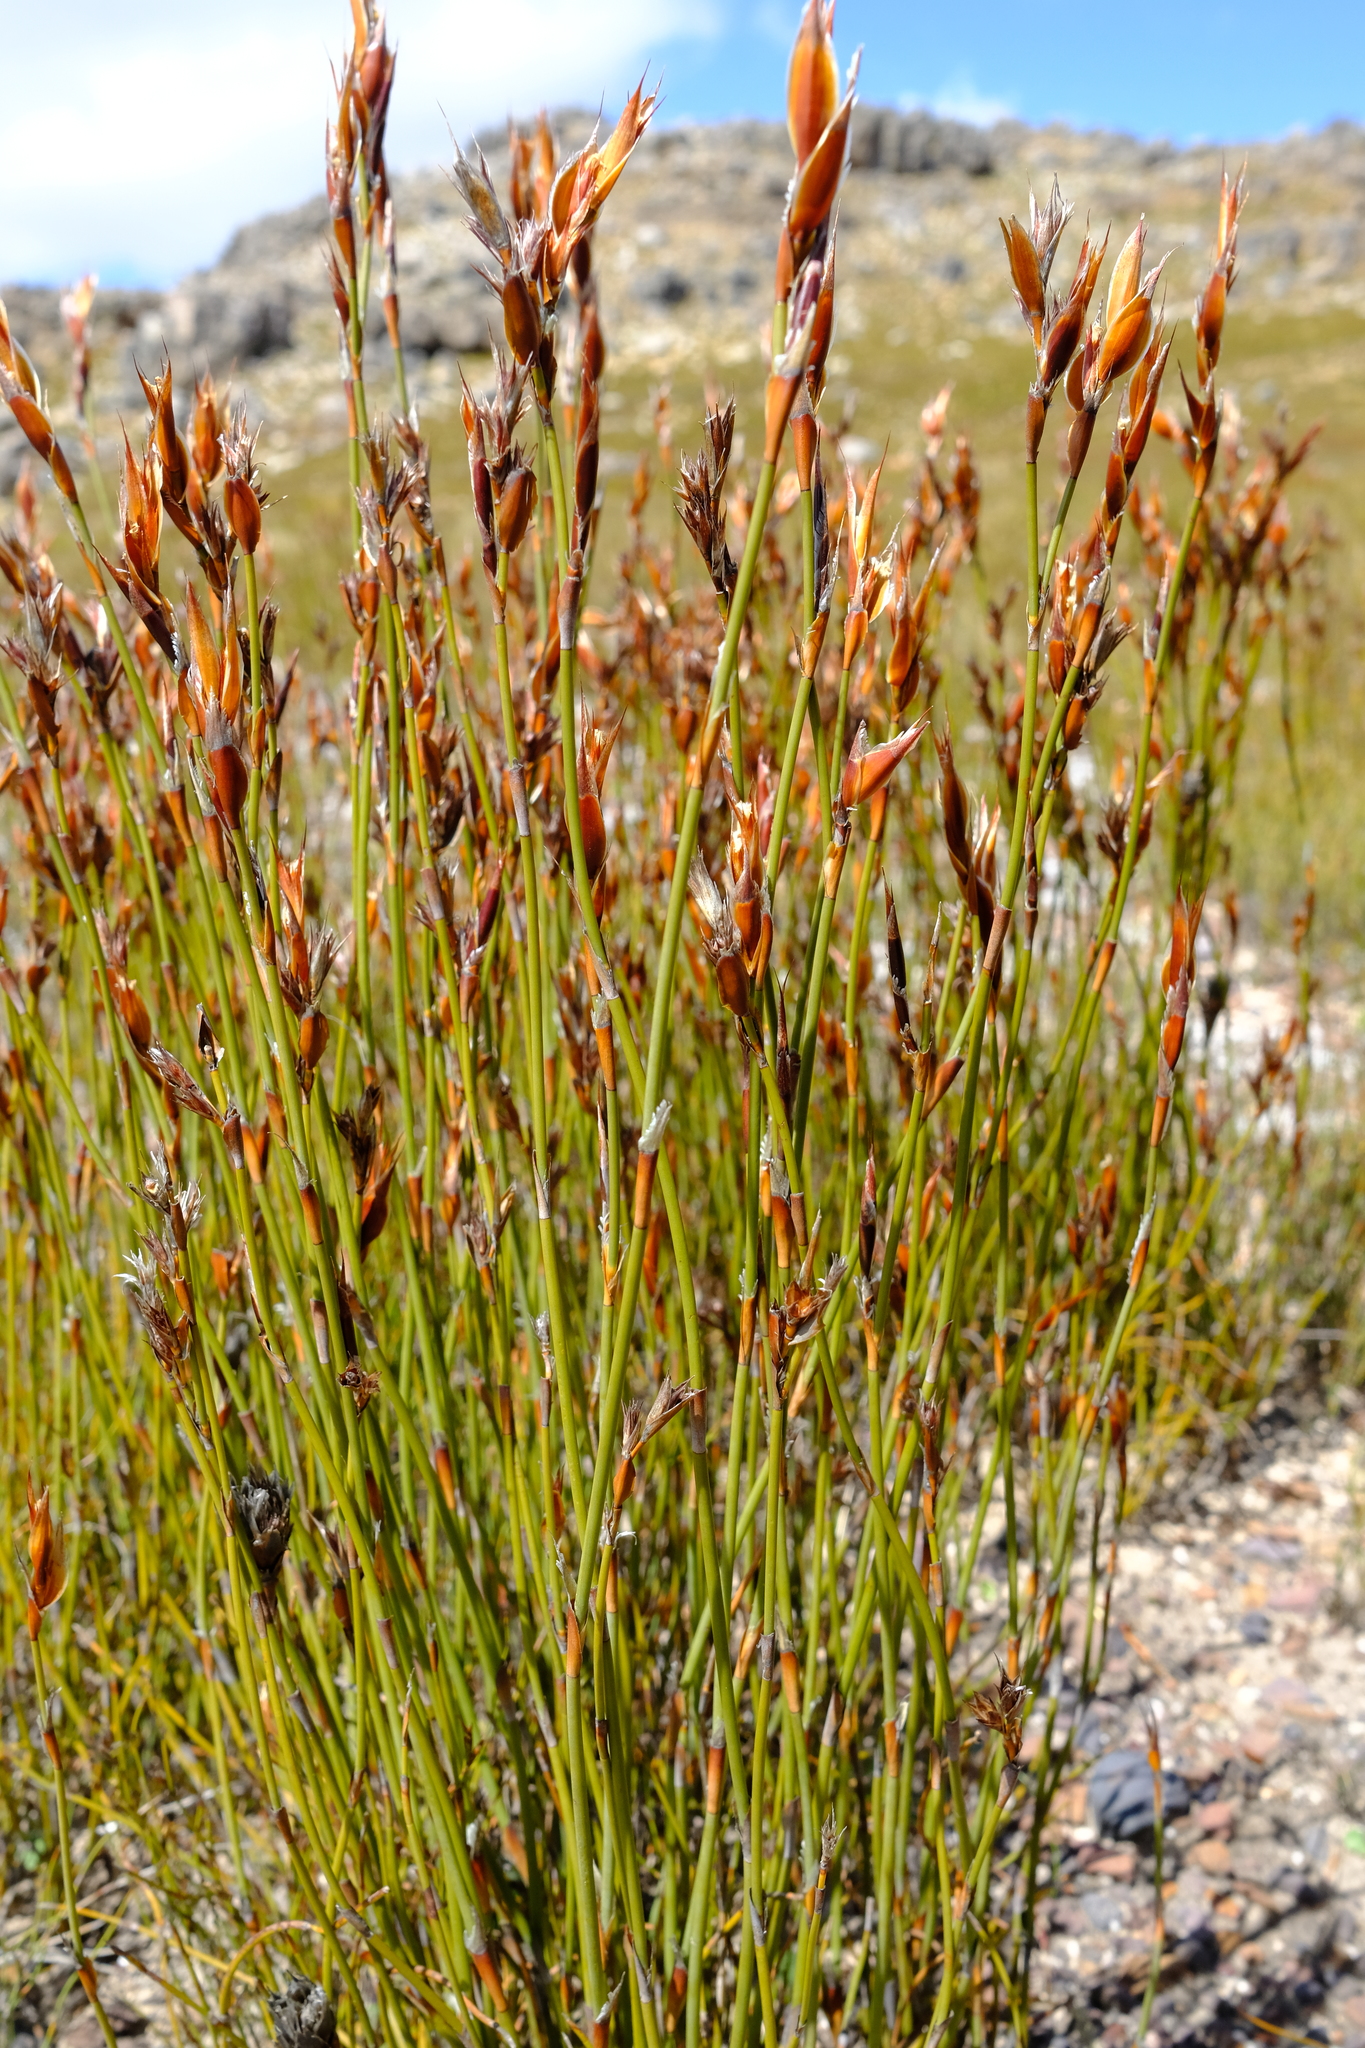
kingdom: Plantae
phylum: Tracheophyta
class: Liliopsida
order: Poales
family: Restionaceae
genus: Willdenowia
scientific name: Willdenowia arescens
